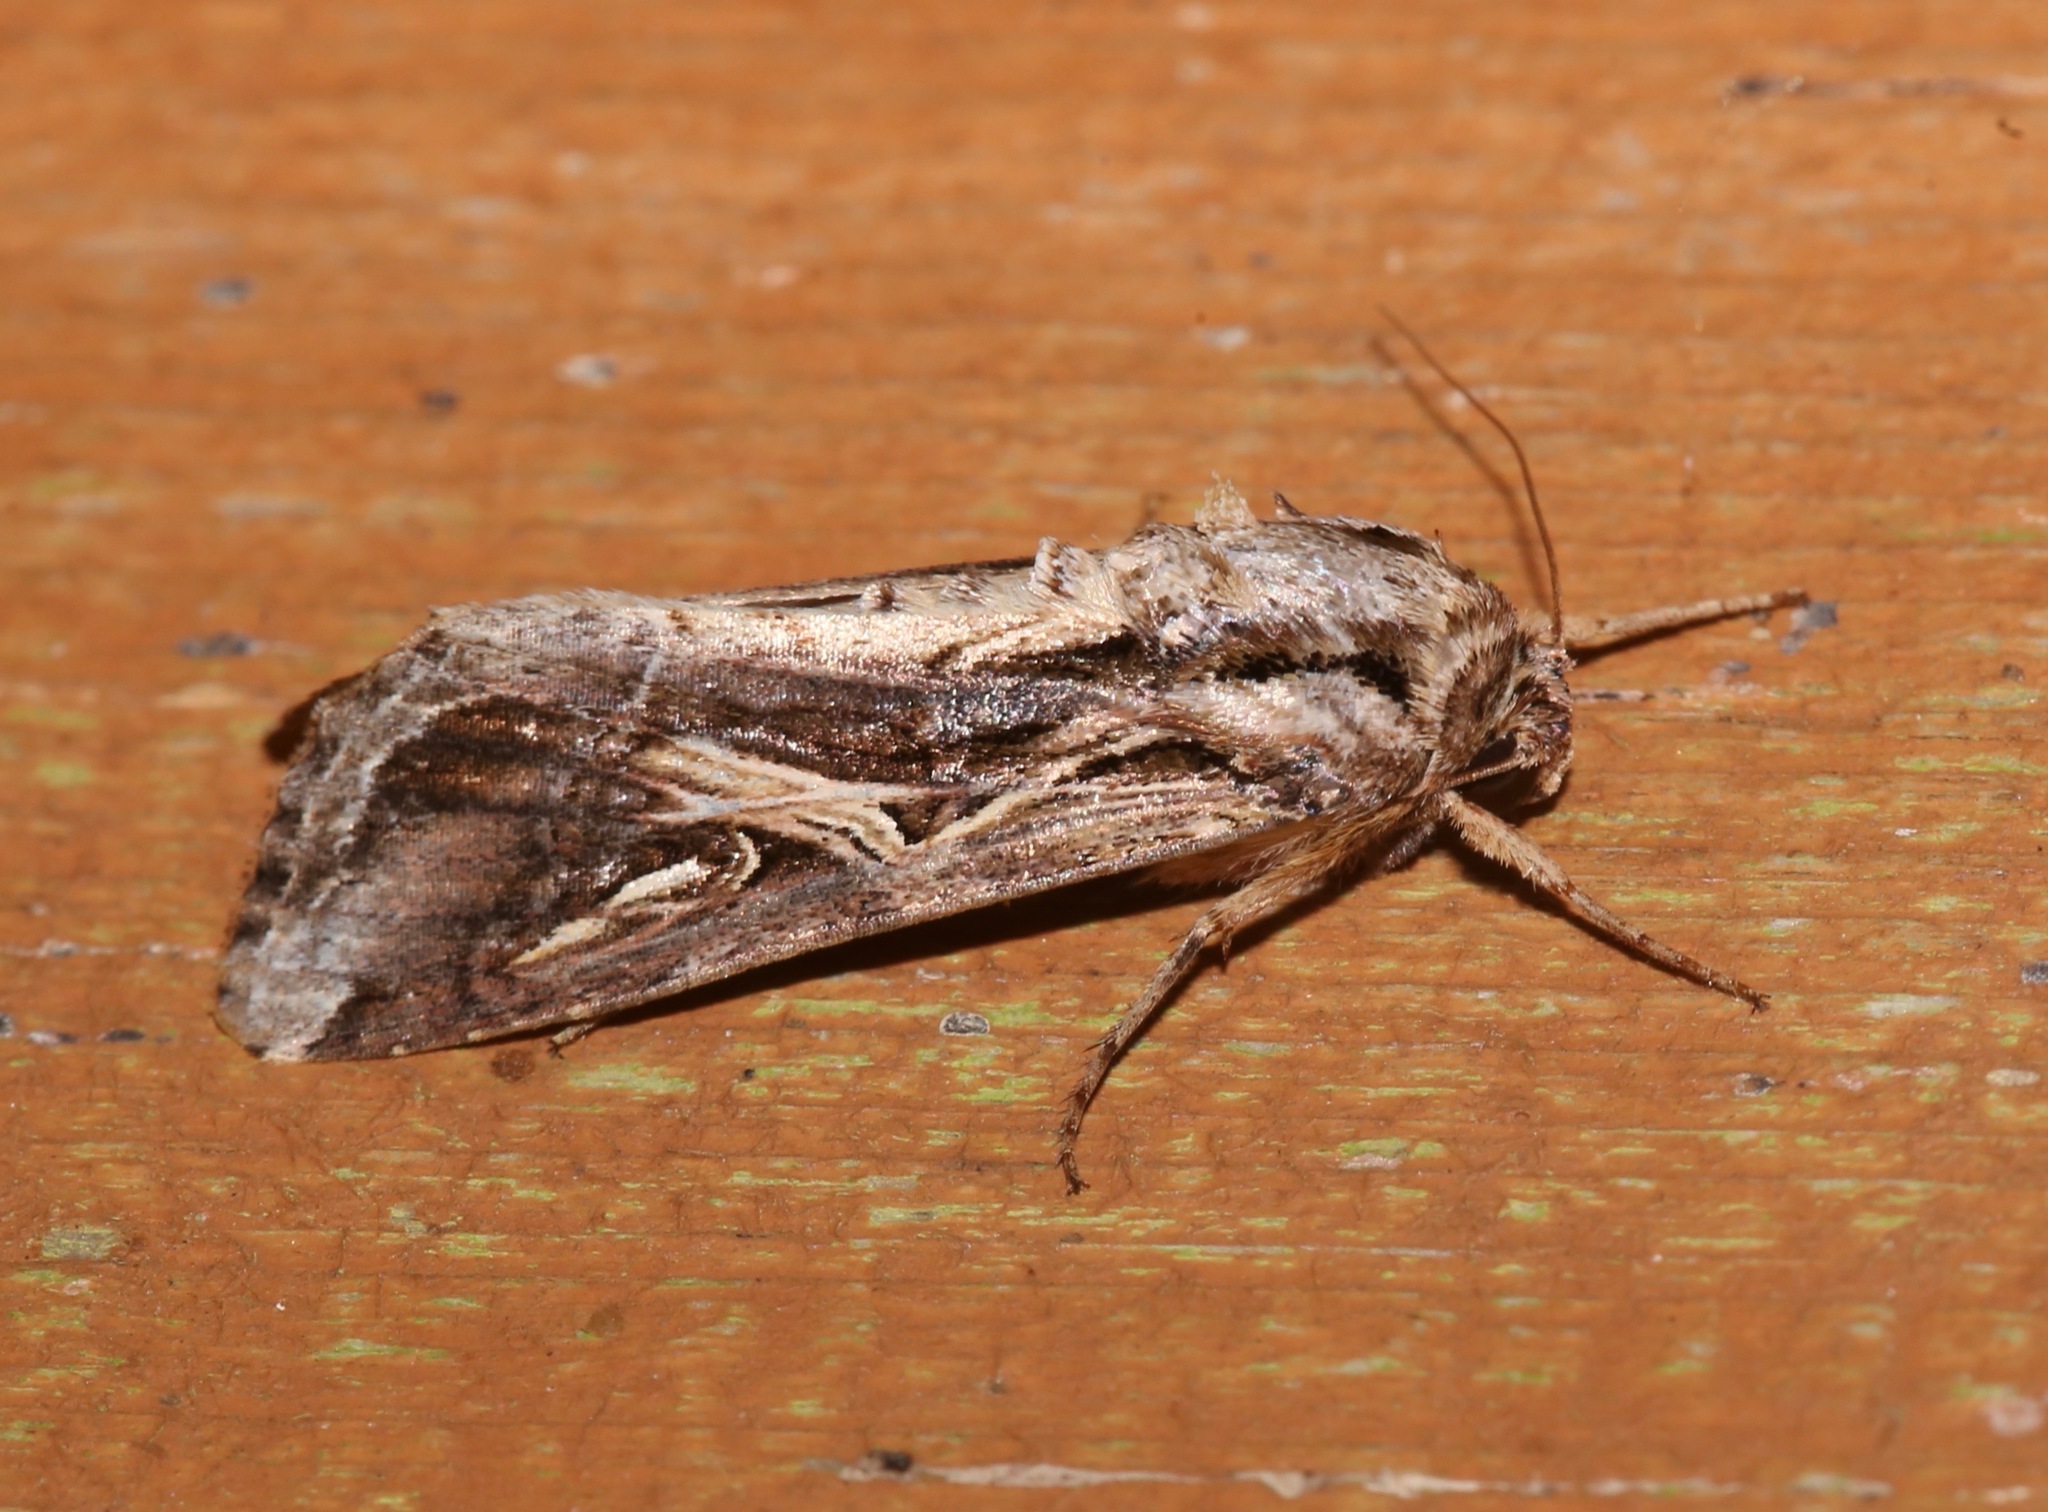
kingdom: Animalia
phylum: Arthropoda
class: Insecta
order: Lepidoptera
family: Noctuidae
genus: Spodoptera
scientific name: Spodoptera dolichos
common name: Sweetpotato armyworm
